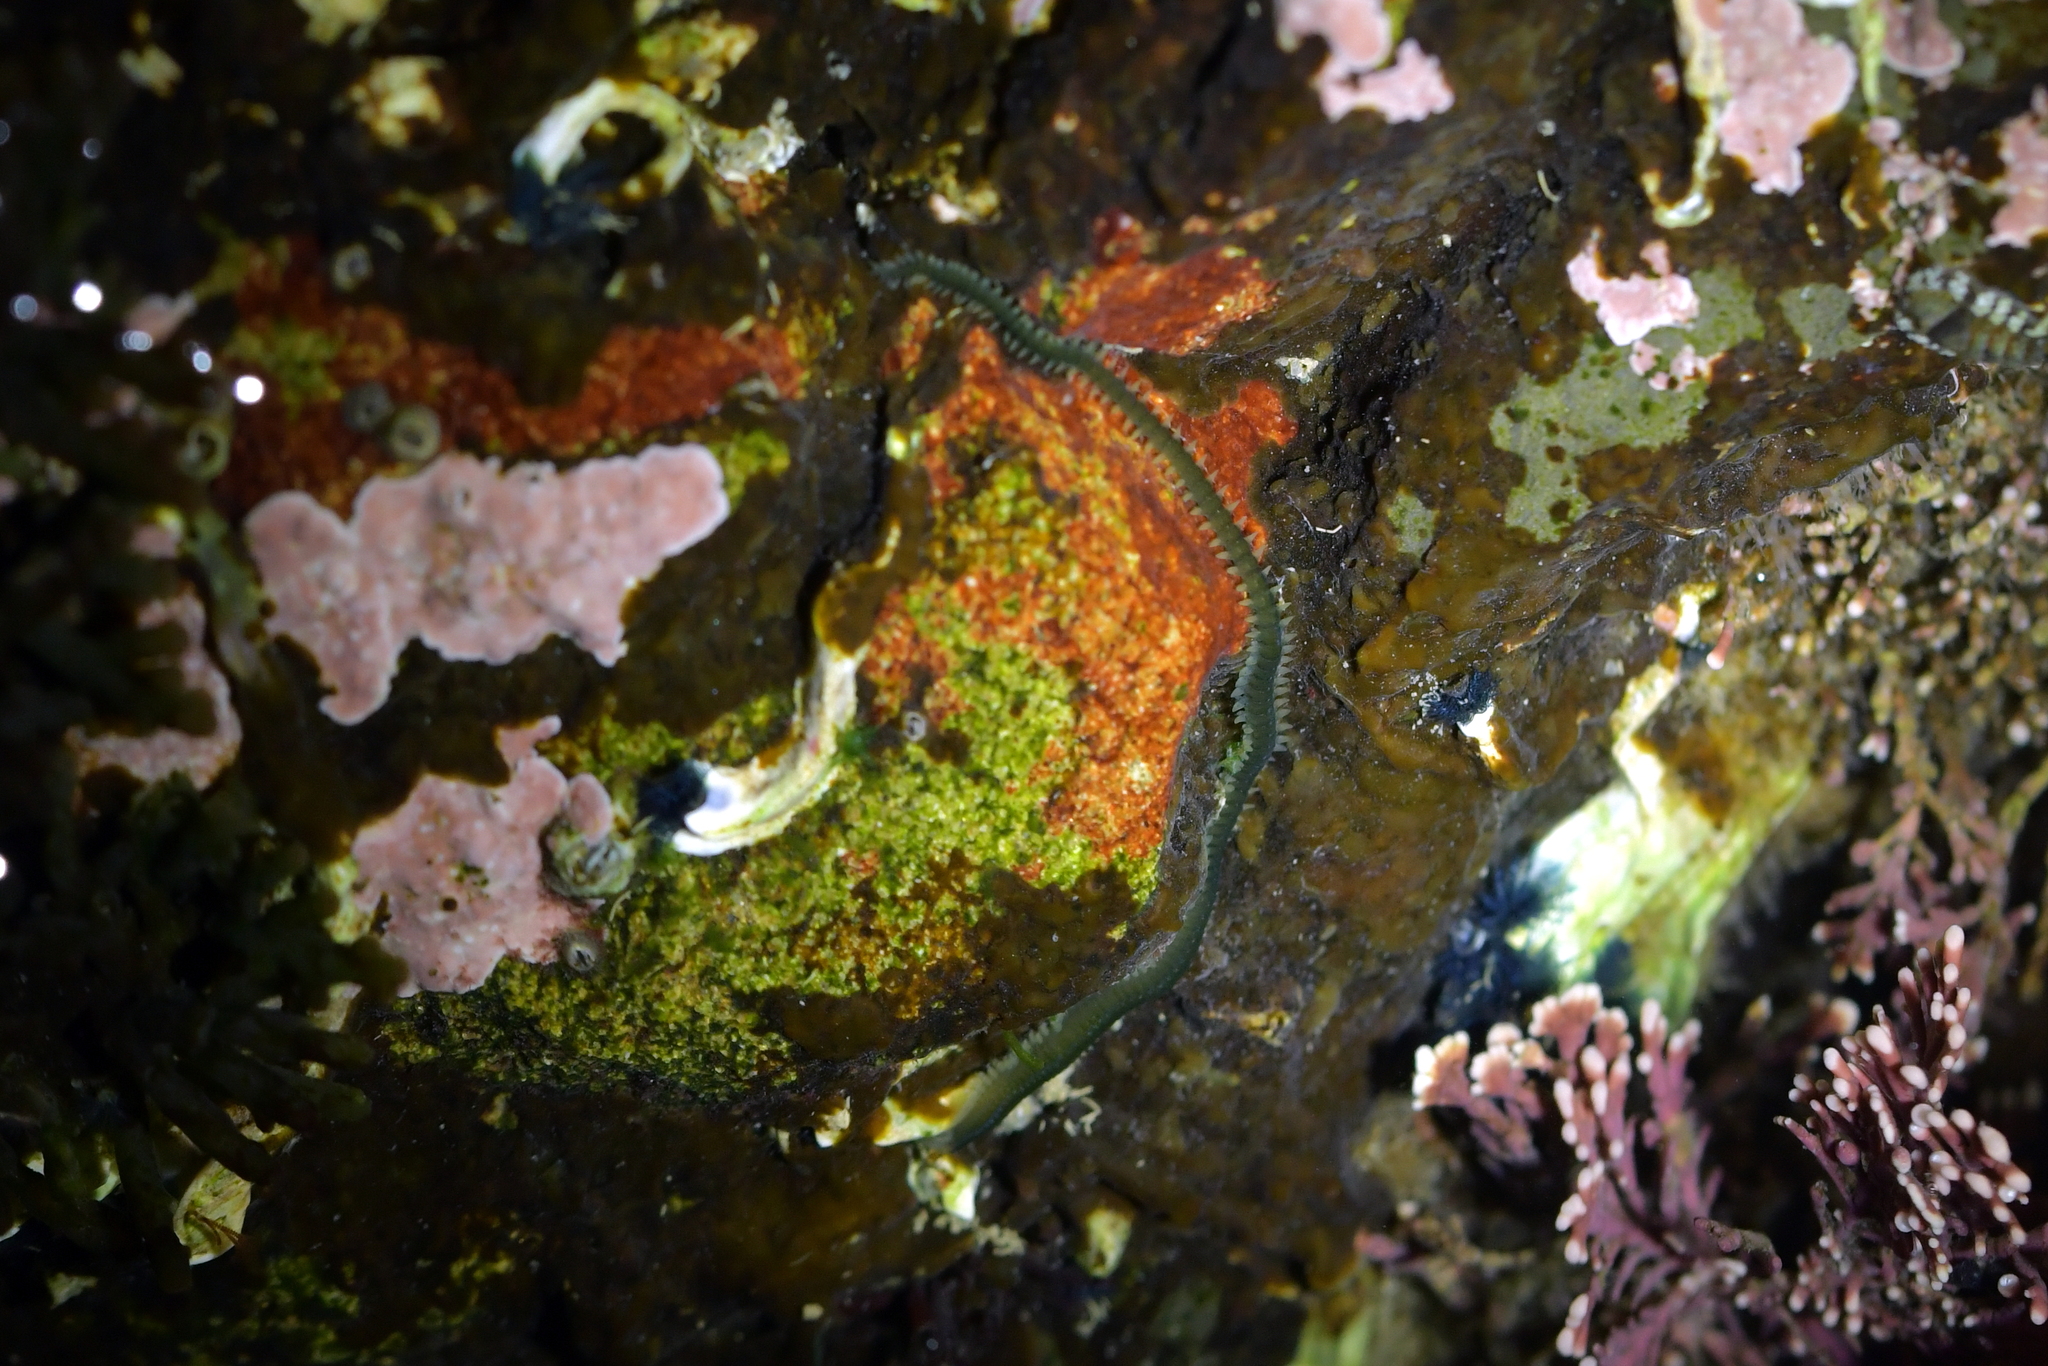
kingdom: Animalia
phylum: Annelida
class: Polychaeta
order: Phyllodocida
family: Phyllodocidae
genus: Eulalia
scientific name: Eulalia microphylla
